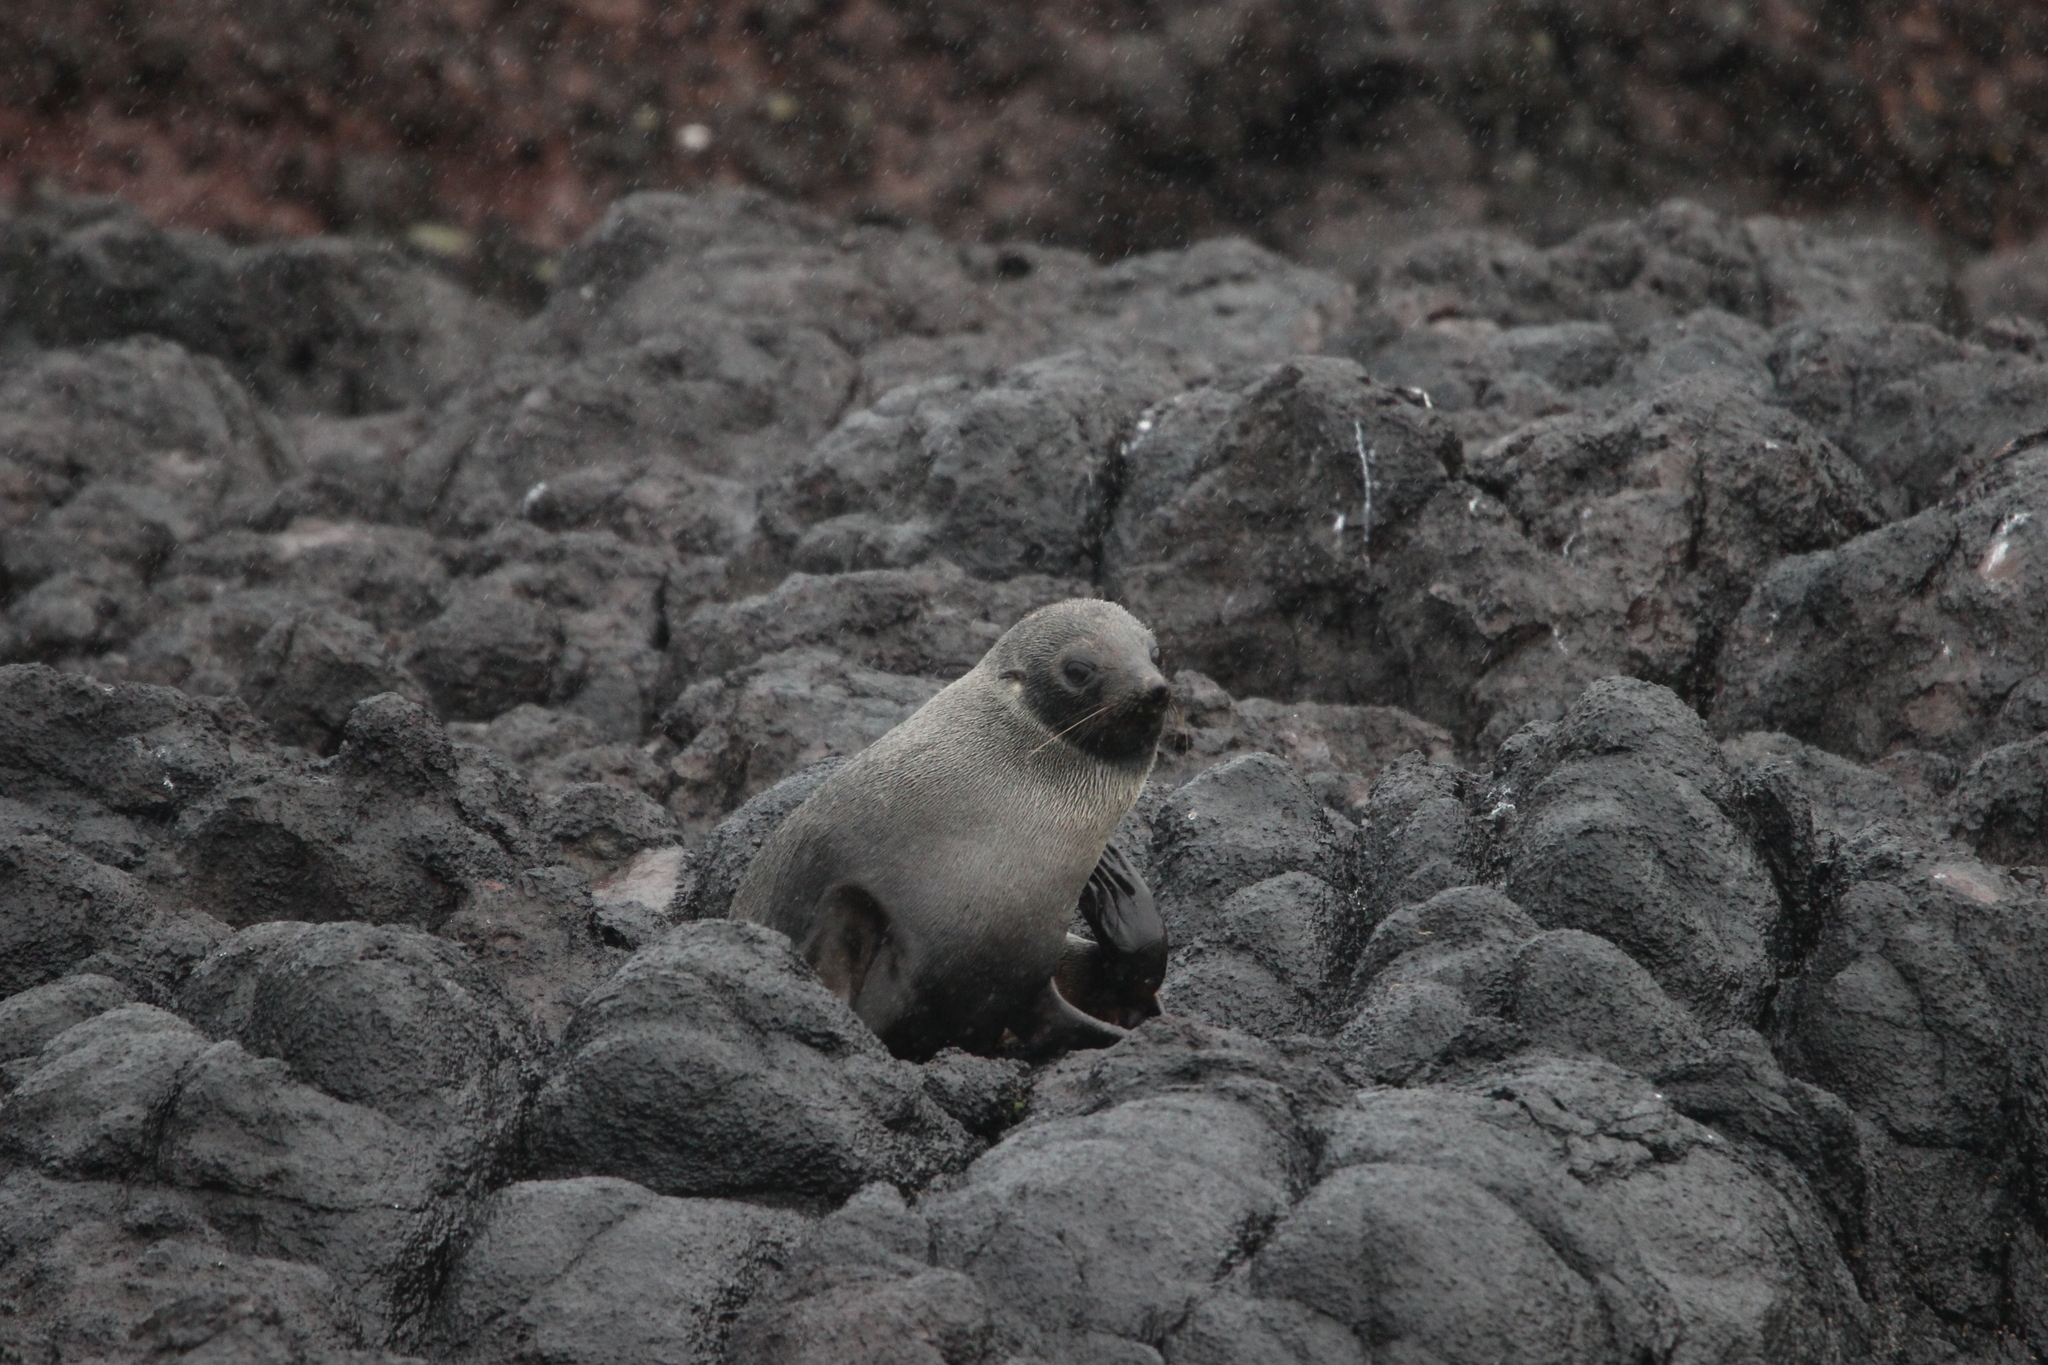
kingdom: Animalia
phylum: Chordata
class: Mammalia
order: Carnivora
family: Otariidae
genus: Arctocephalus
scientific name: Arctocephalus forsteri
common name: New zealand fur seal
